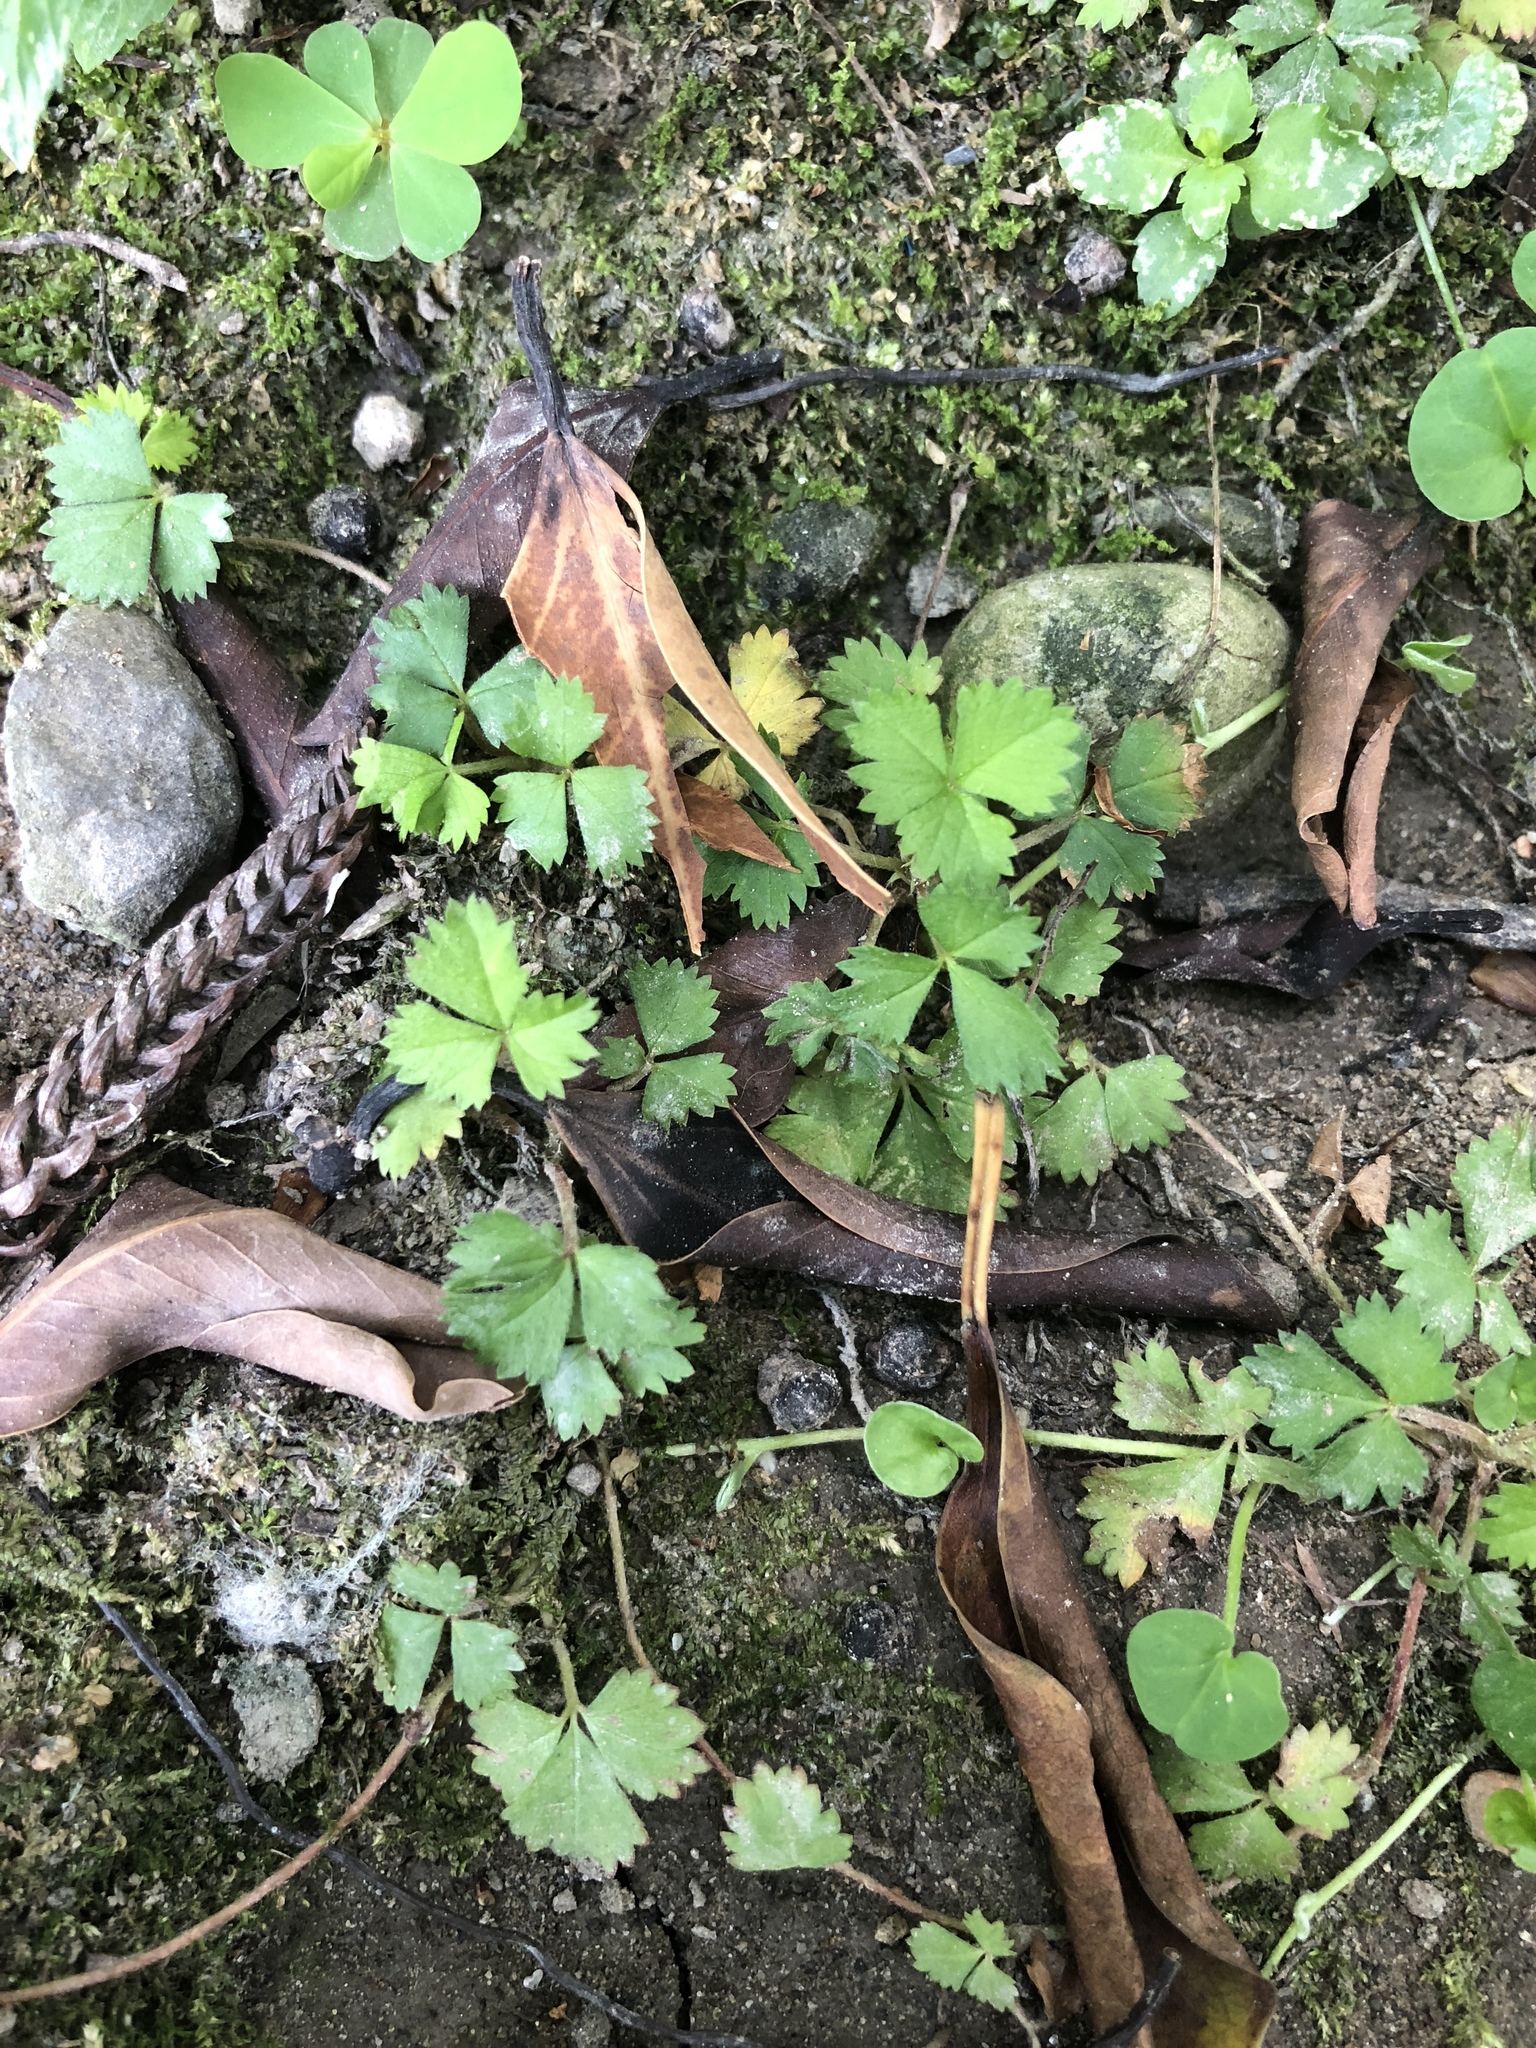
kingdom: Plantae
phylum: Tracheophyta
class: Magnoliopsida
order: Rosales
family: Rosaceae
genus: Potentilla
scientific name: Potentilla wallichiana
